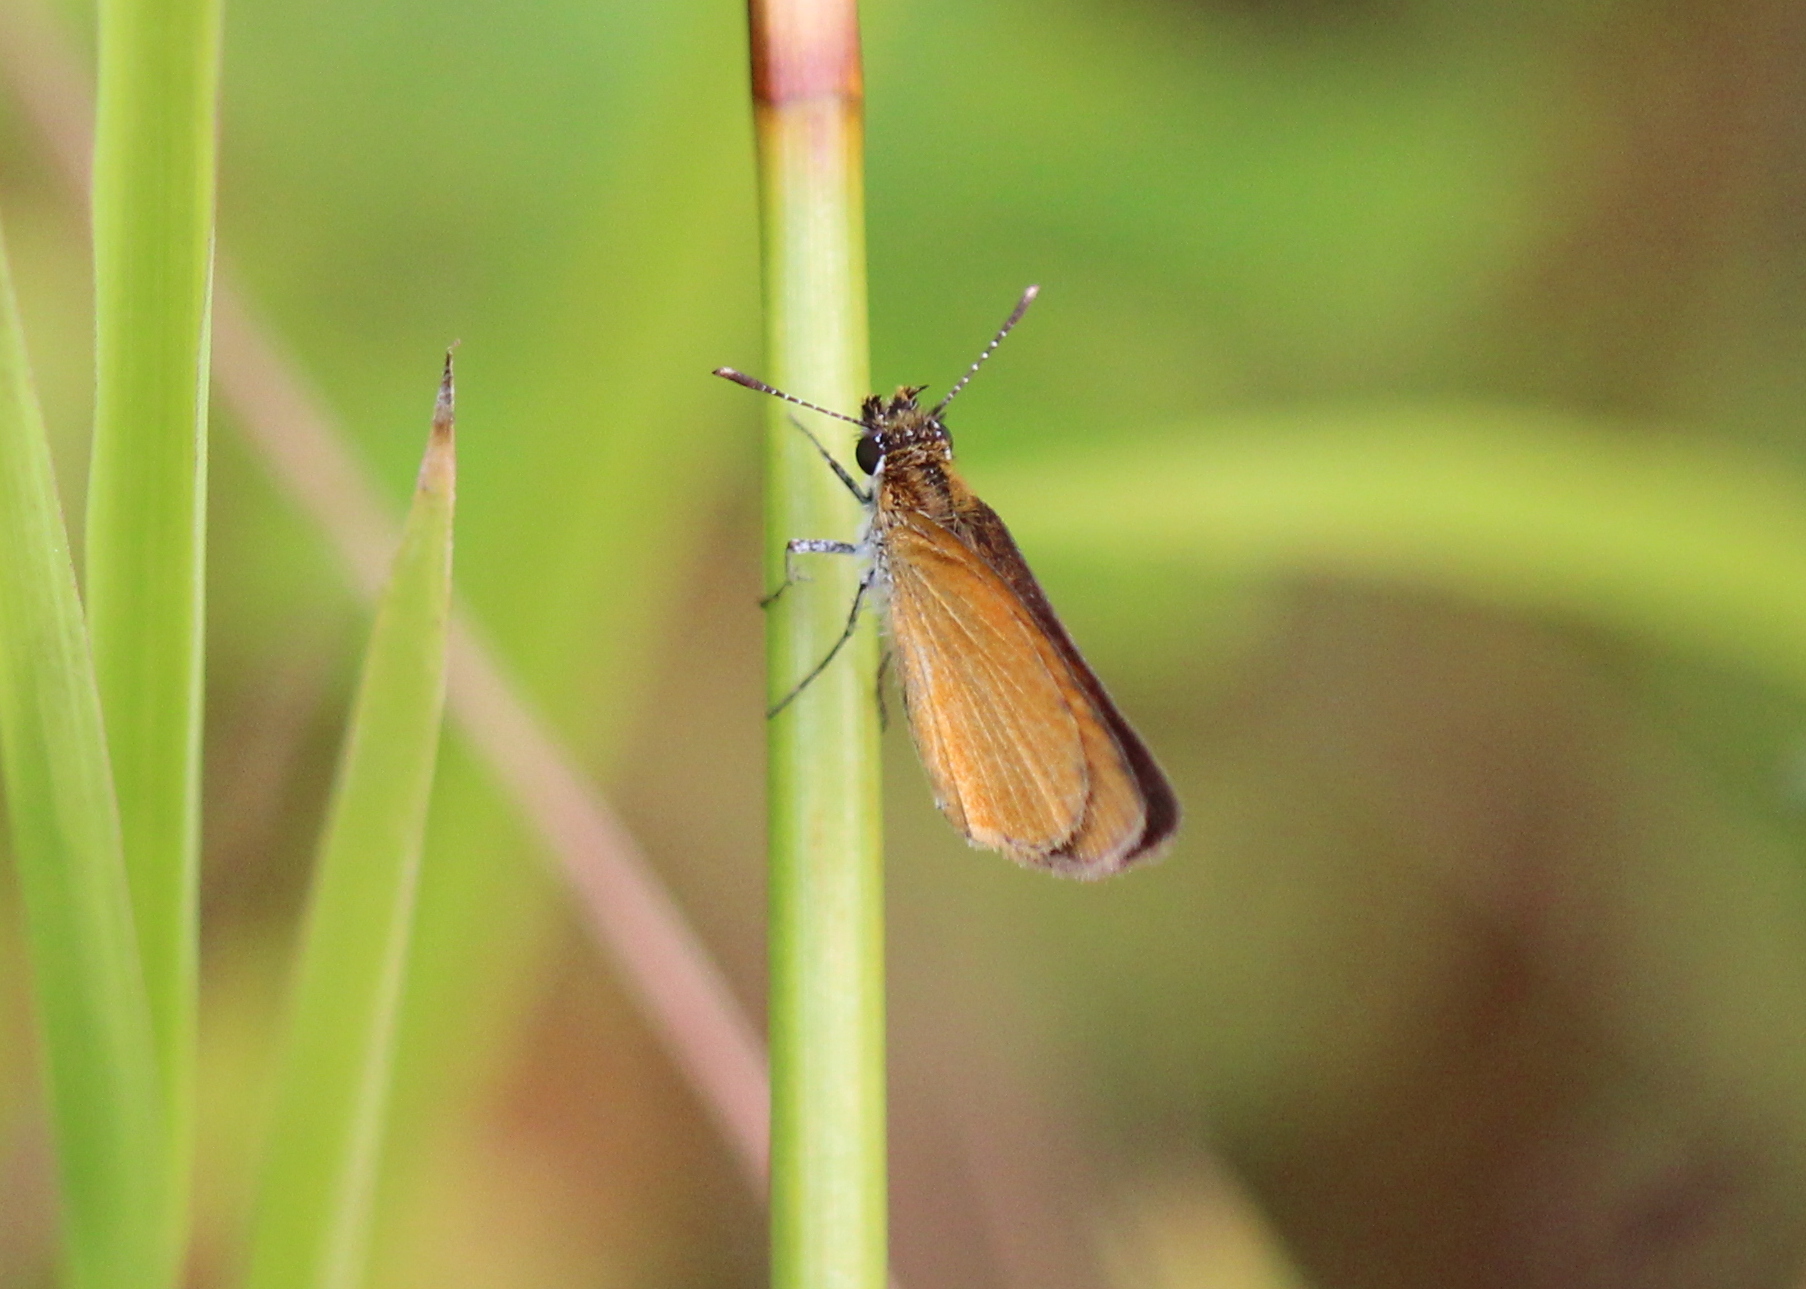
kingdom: Animalia
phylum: Arthropoda
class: Insecta
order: Lepidoptera
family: Hesperiidae
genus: Ancyloxypha
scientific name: Ancyloxypha numitor
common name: Least skipper
